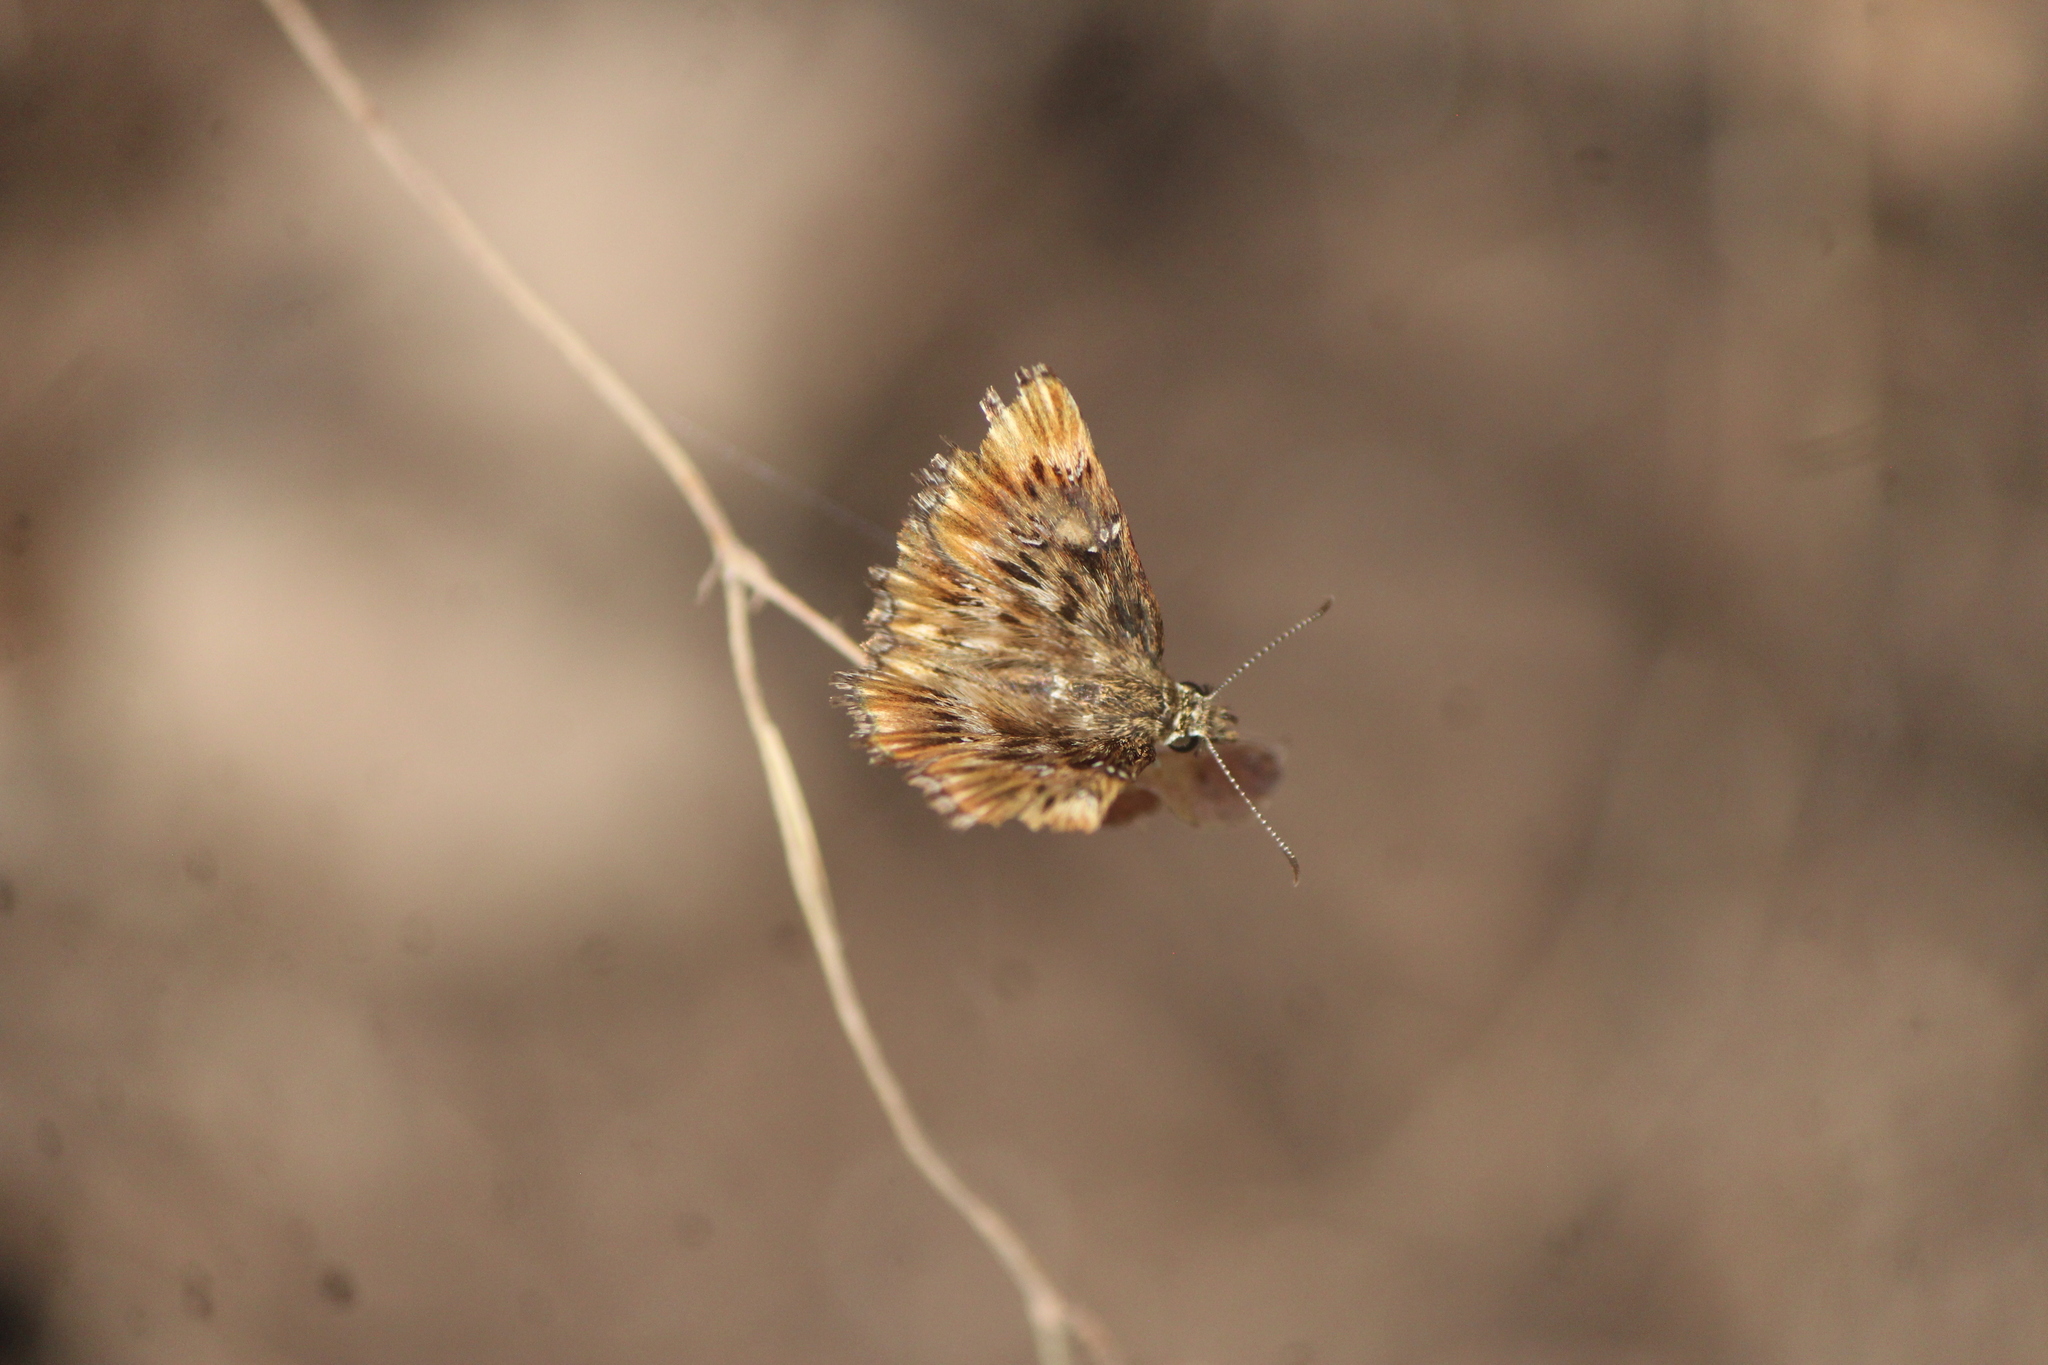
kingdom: Animalia
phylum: Arthropoda
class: Insecta
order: Lepidoptera
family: Hesperiidae
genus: Celotes
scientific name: Celotes spurcus
